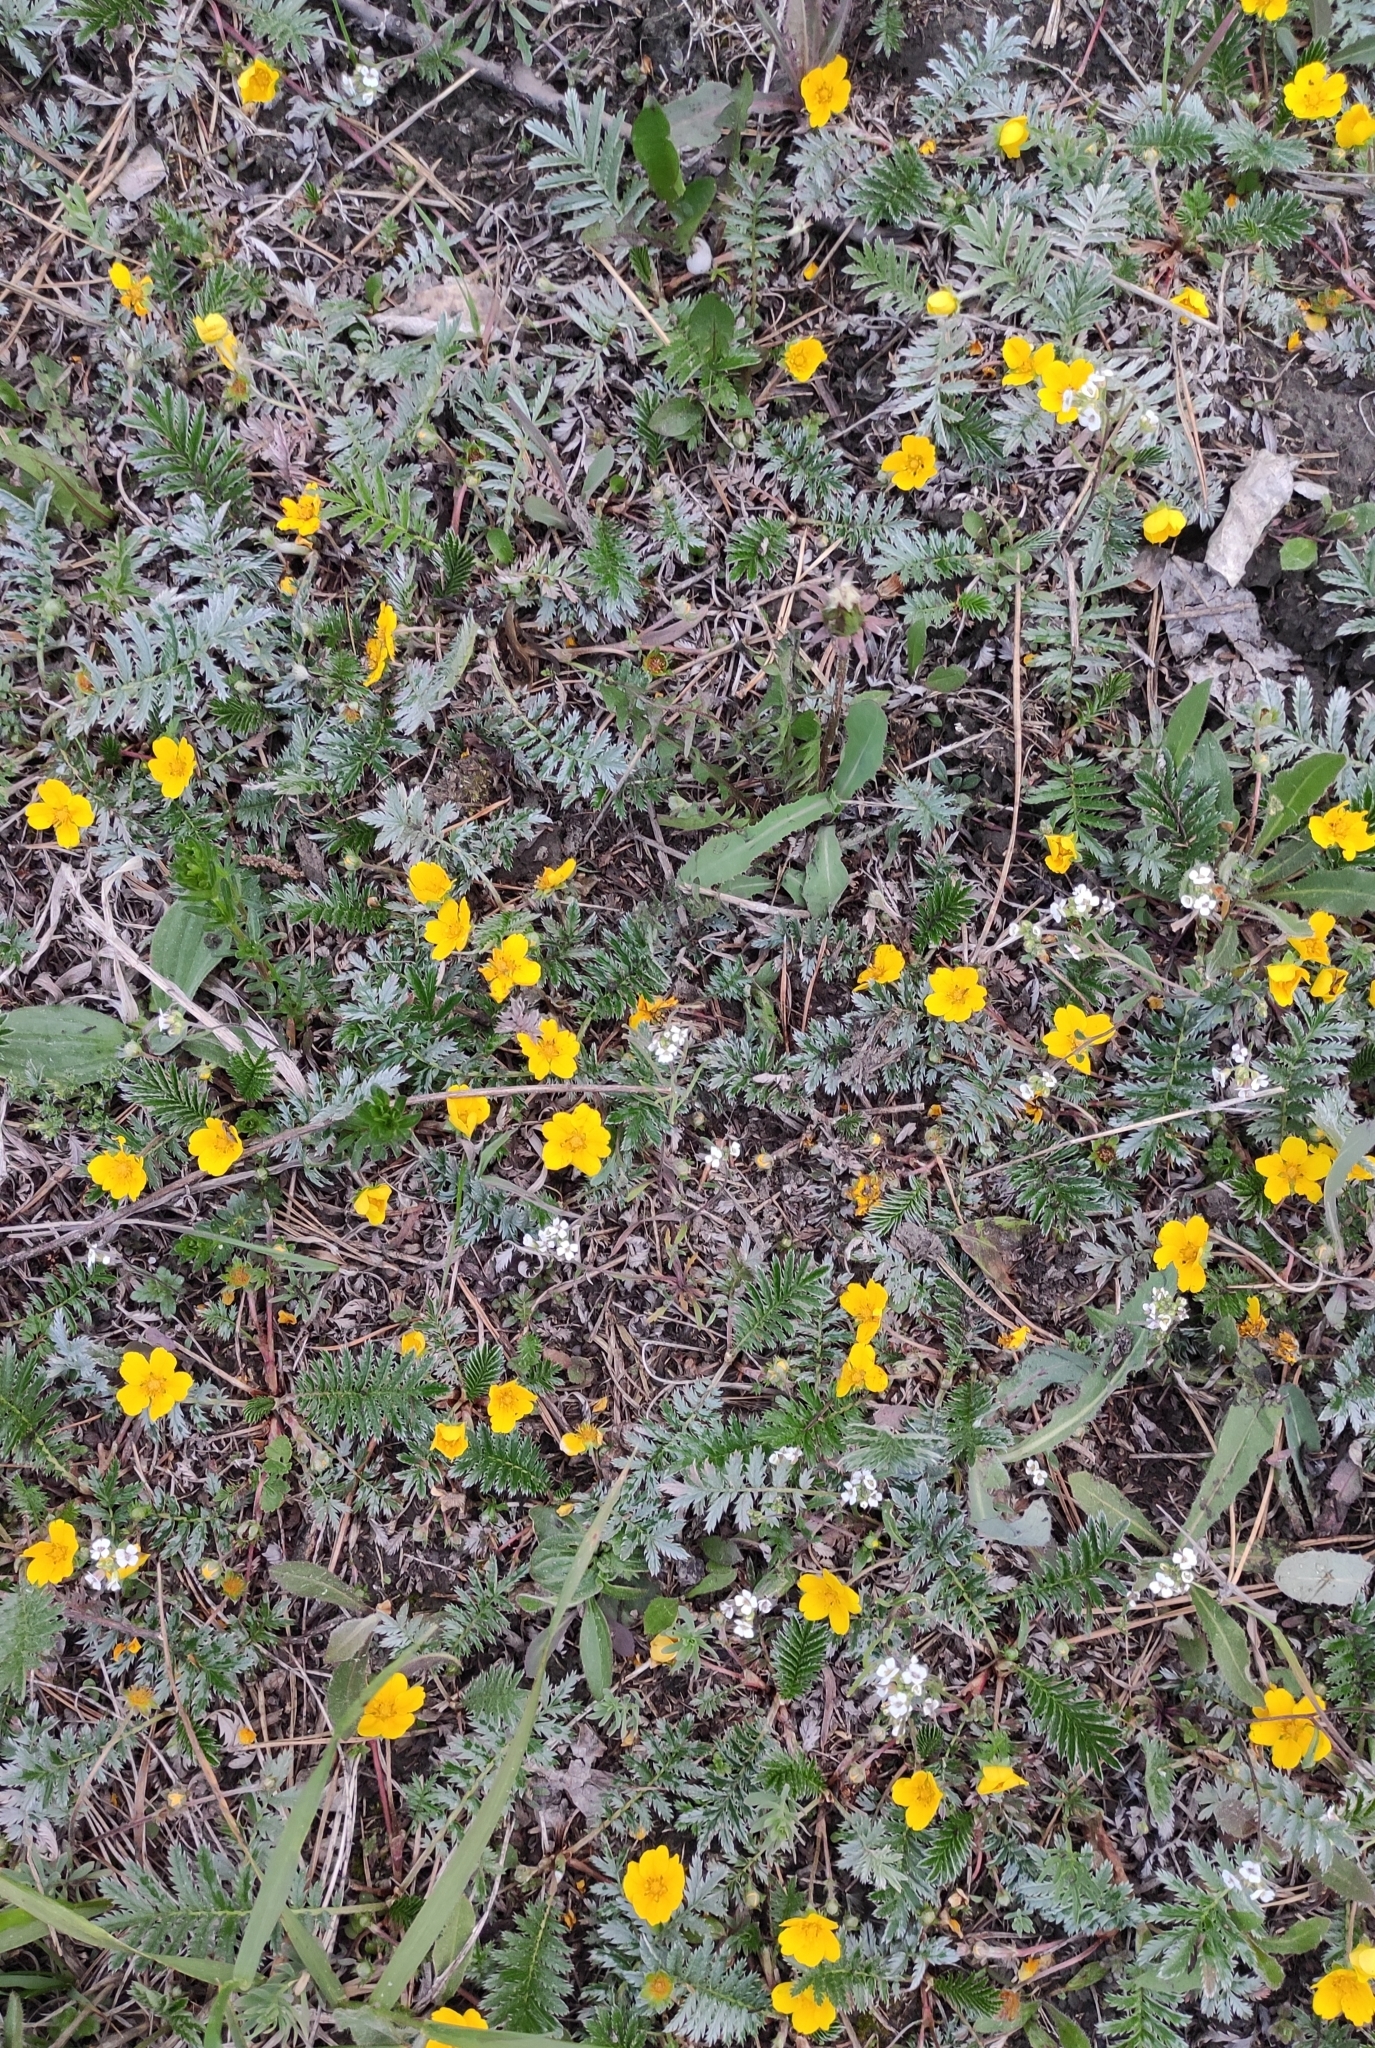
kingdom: Plantae
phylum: Tracheophyta
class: Magnoliopsida
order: Rosales
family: Rosaceae
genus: Argentina
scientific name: Argentina anserina
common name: Common silverweed
